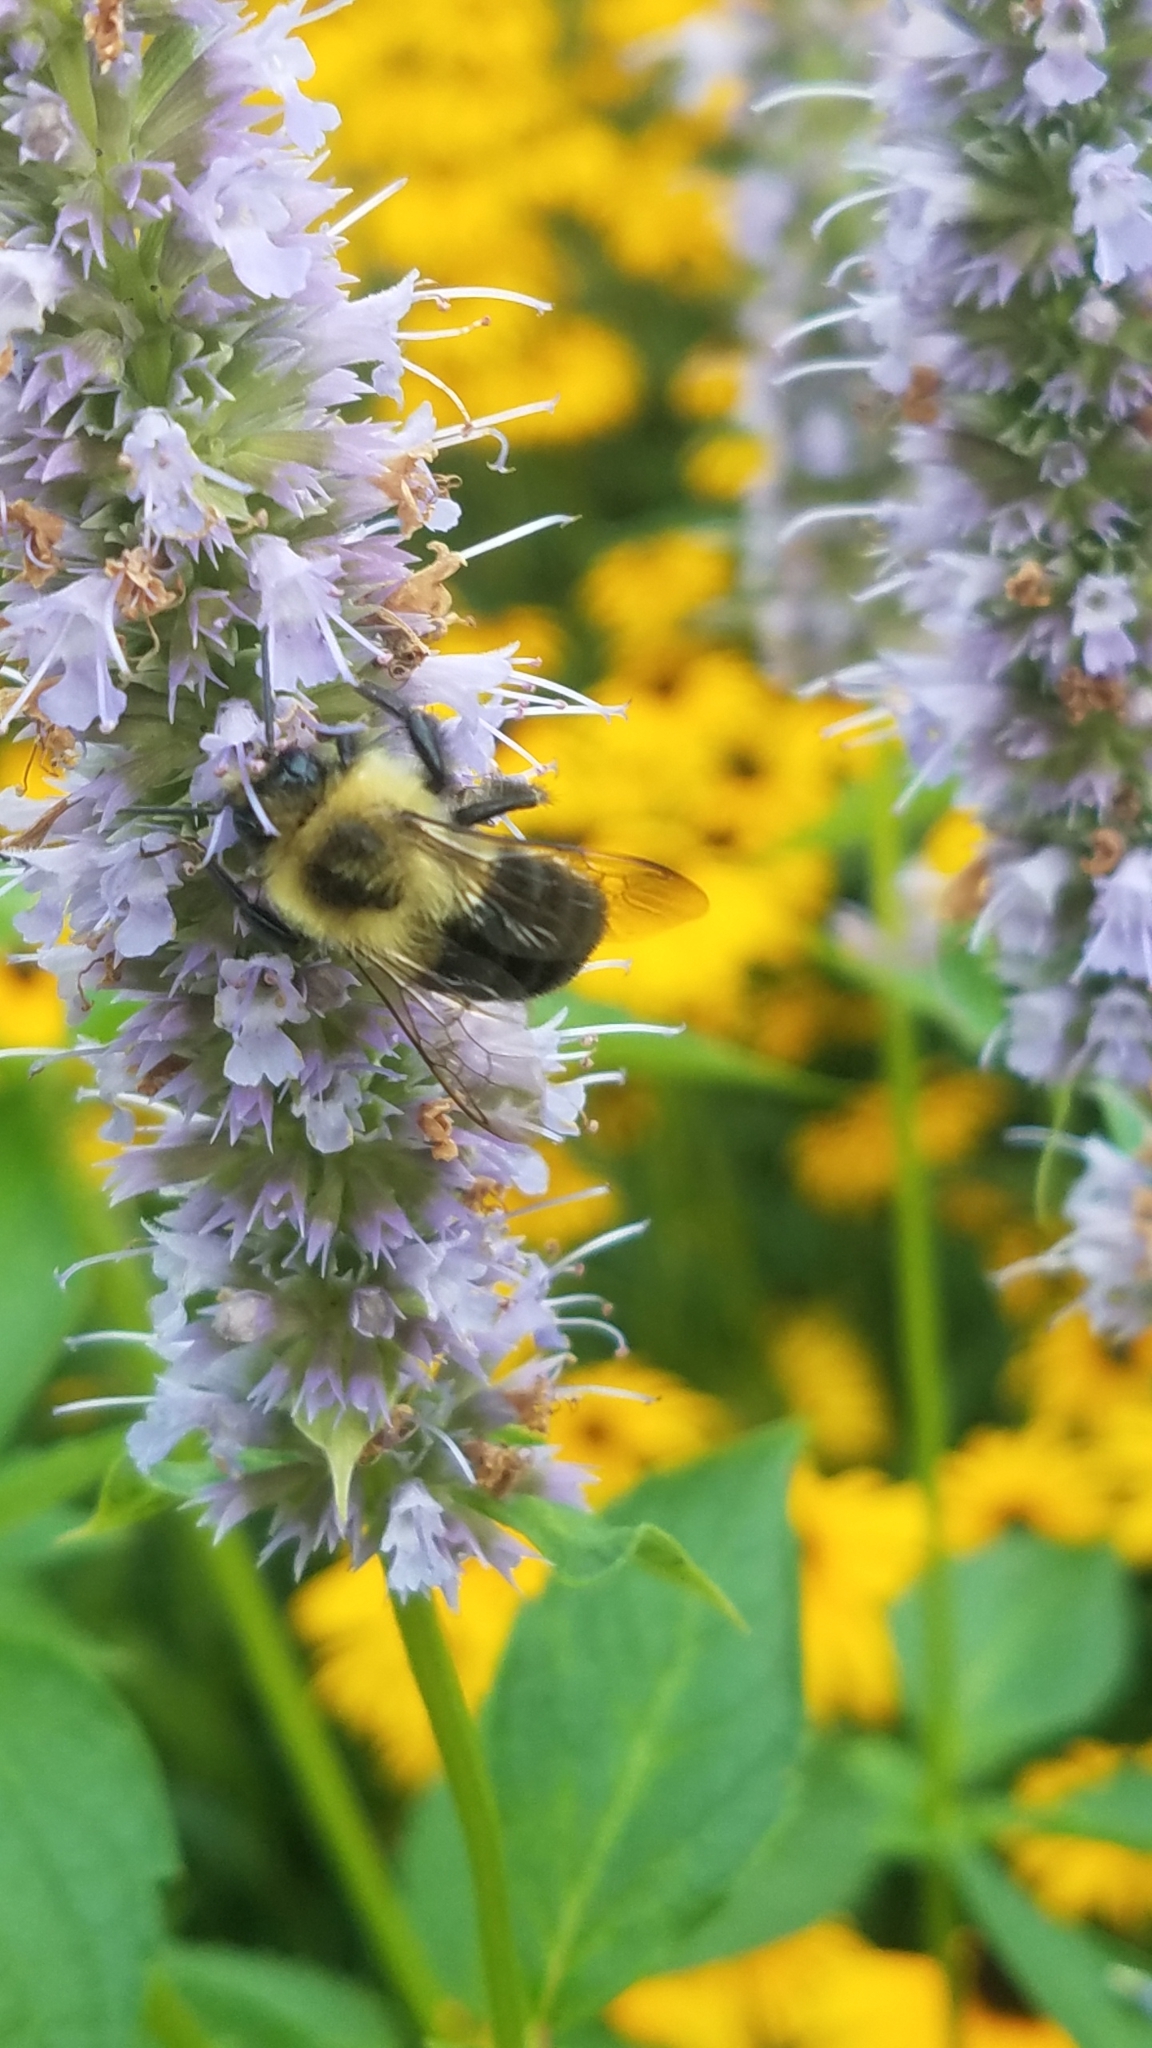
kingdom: Animalia
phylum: Arthropoda
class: Insecta
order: Hymenoptera
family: Apidae
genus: Bombus
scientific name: Bombus impatiens
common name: Common eastern bumble bee
